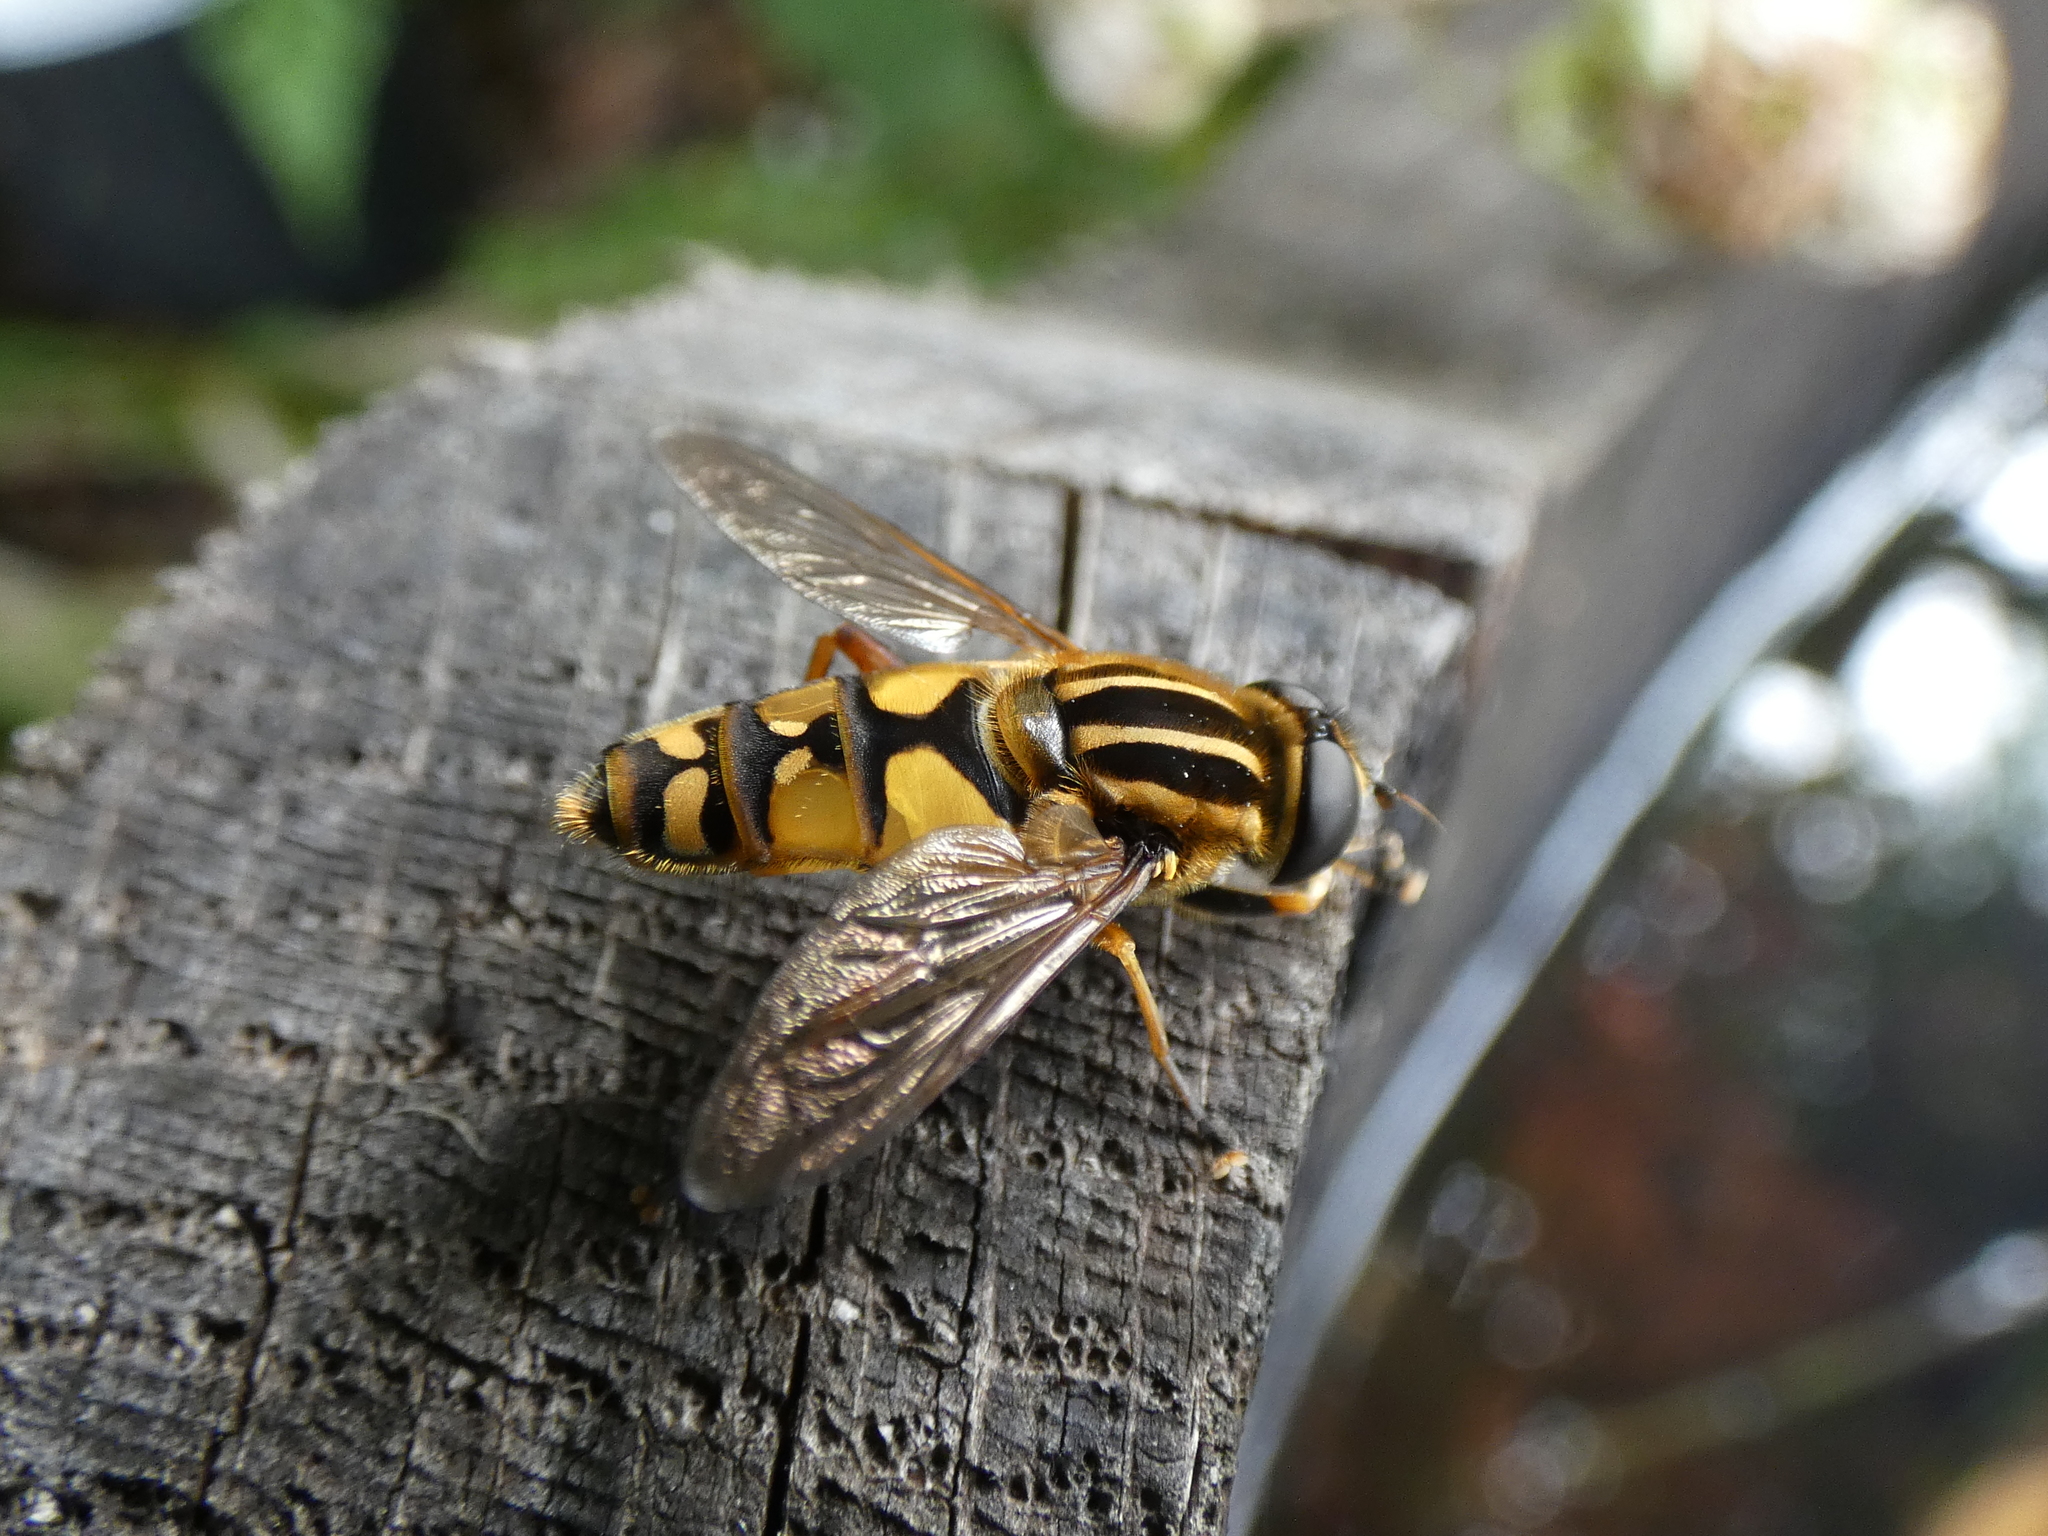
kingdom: Animalia
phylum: Arthropoda
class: Insecta
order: Diptera
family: Syrphidae
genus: Helophilus
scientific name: Helophilus pendulus
